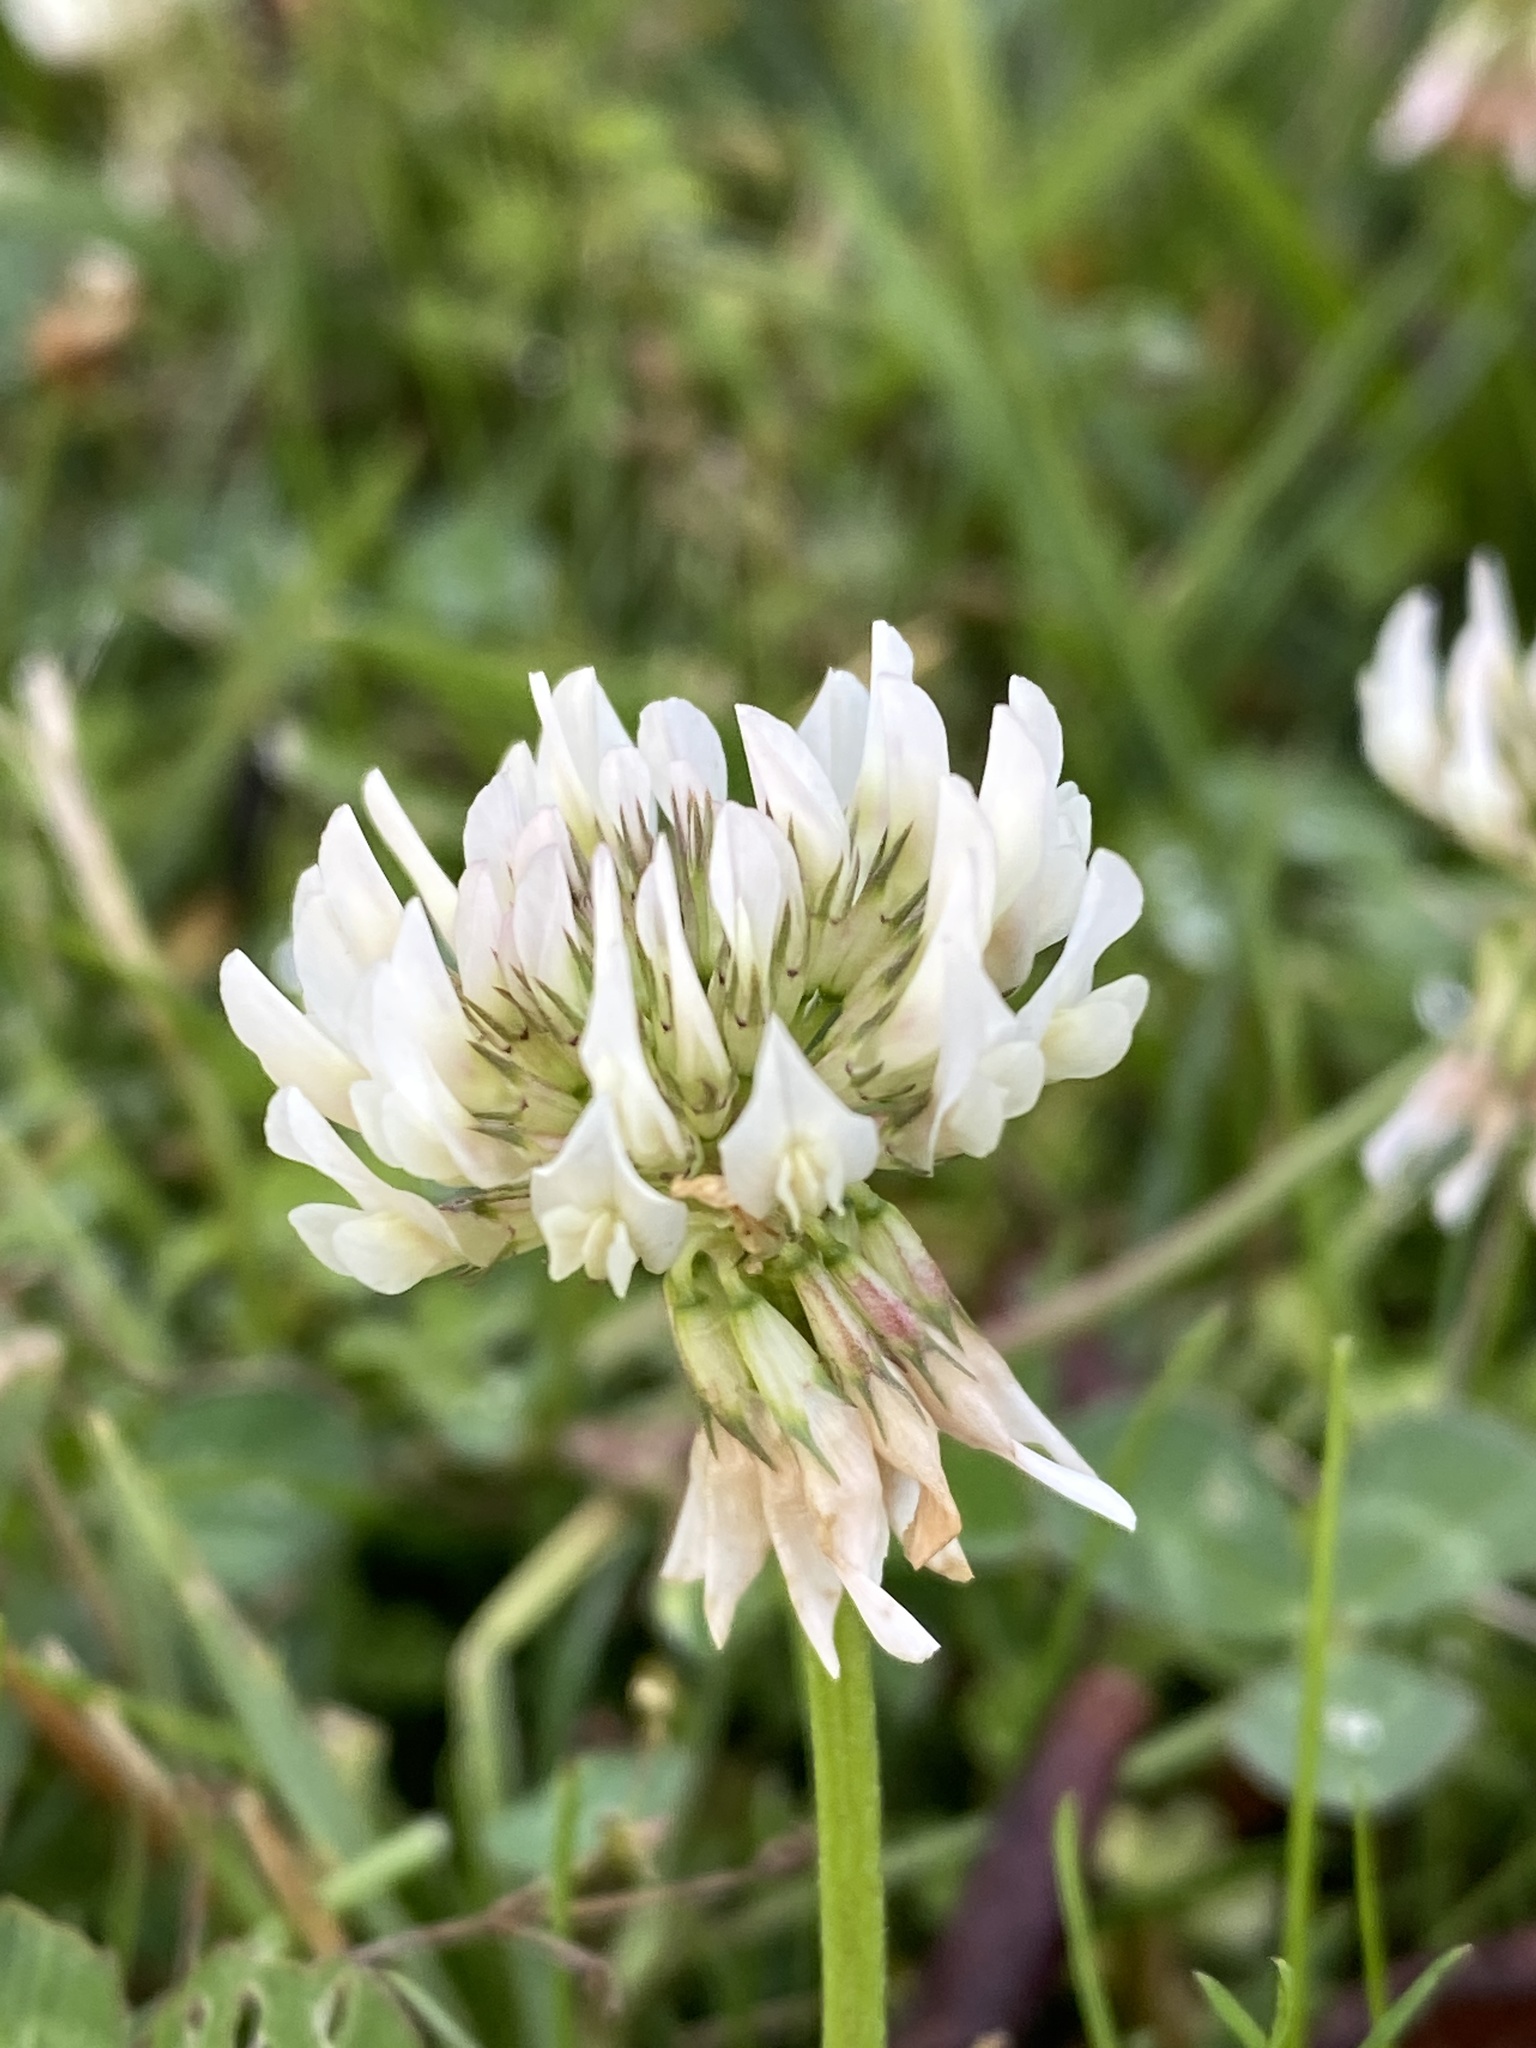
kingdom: Plantae
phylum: Tracheophyta
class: Magnoliopsida
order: Fabales
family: Fabaceae
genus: Trifolium
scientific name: Trifolium repens
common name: White clover
